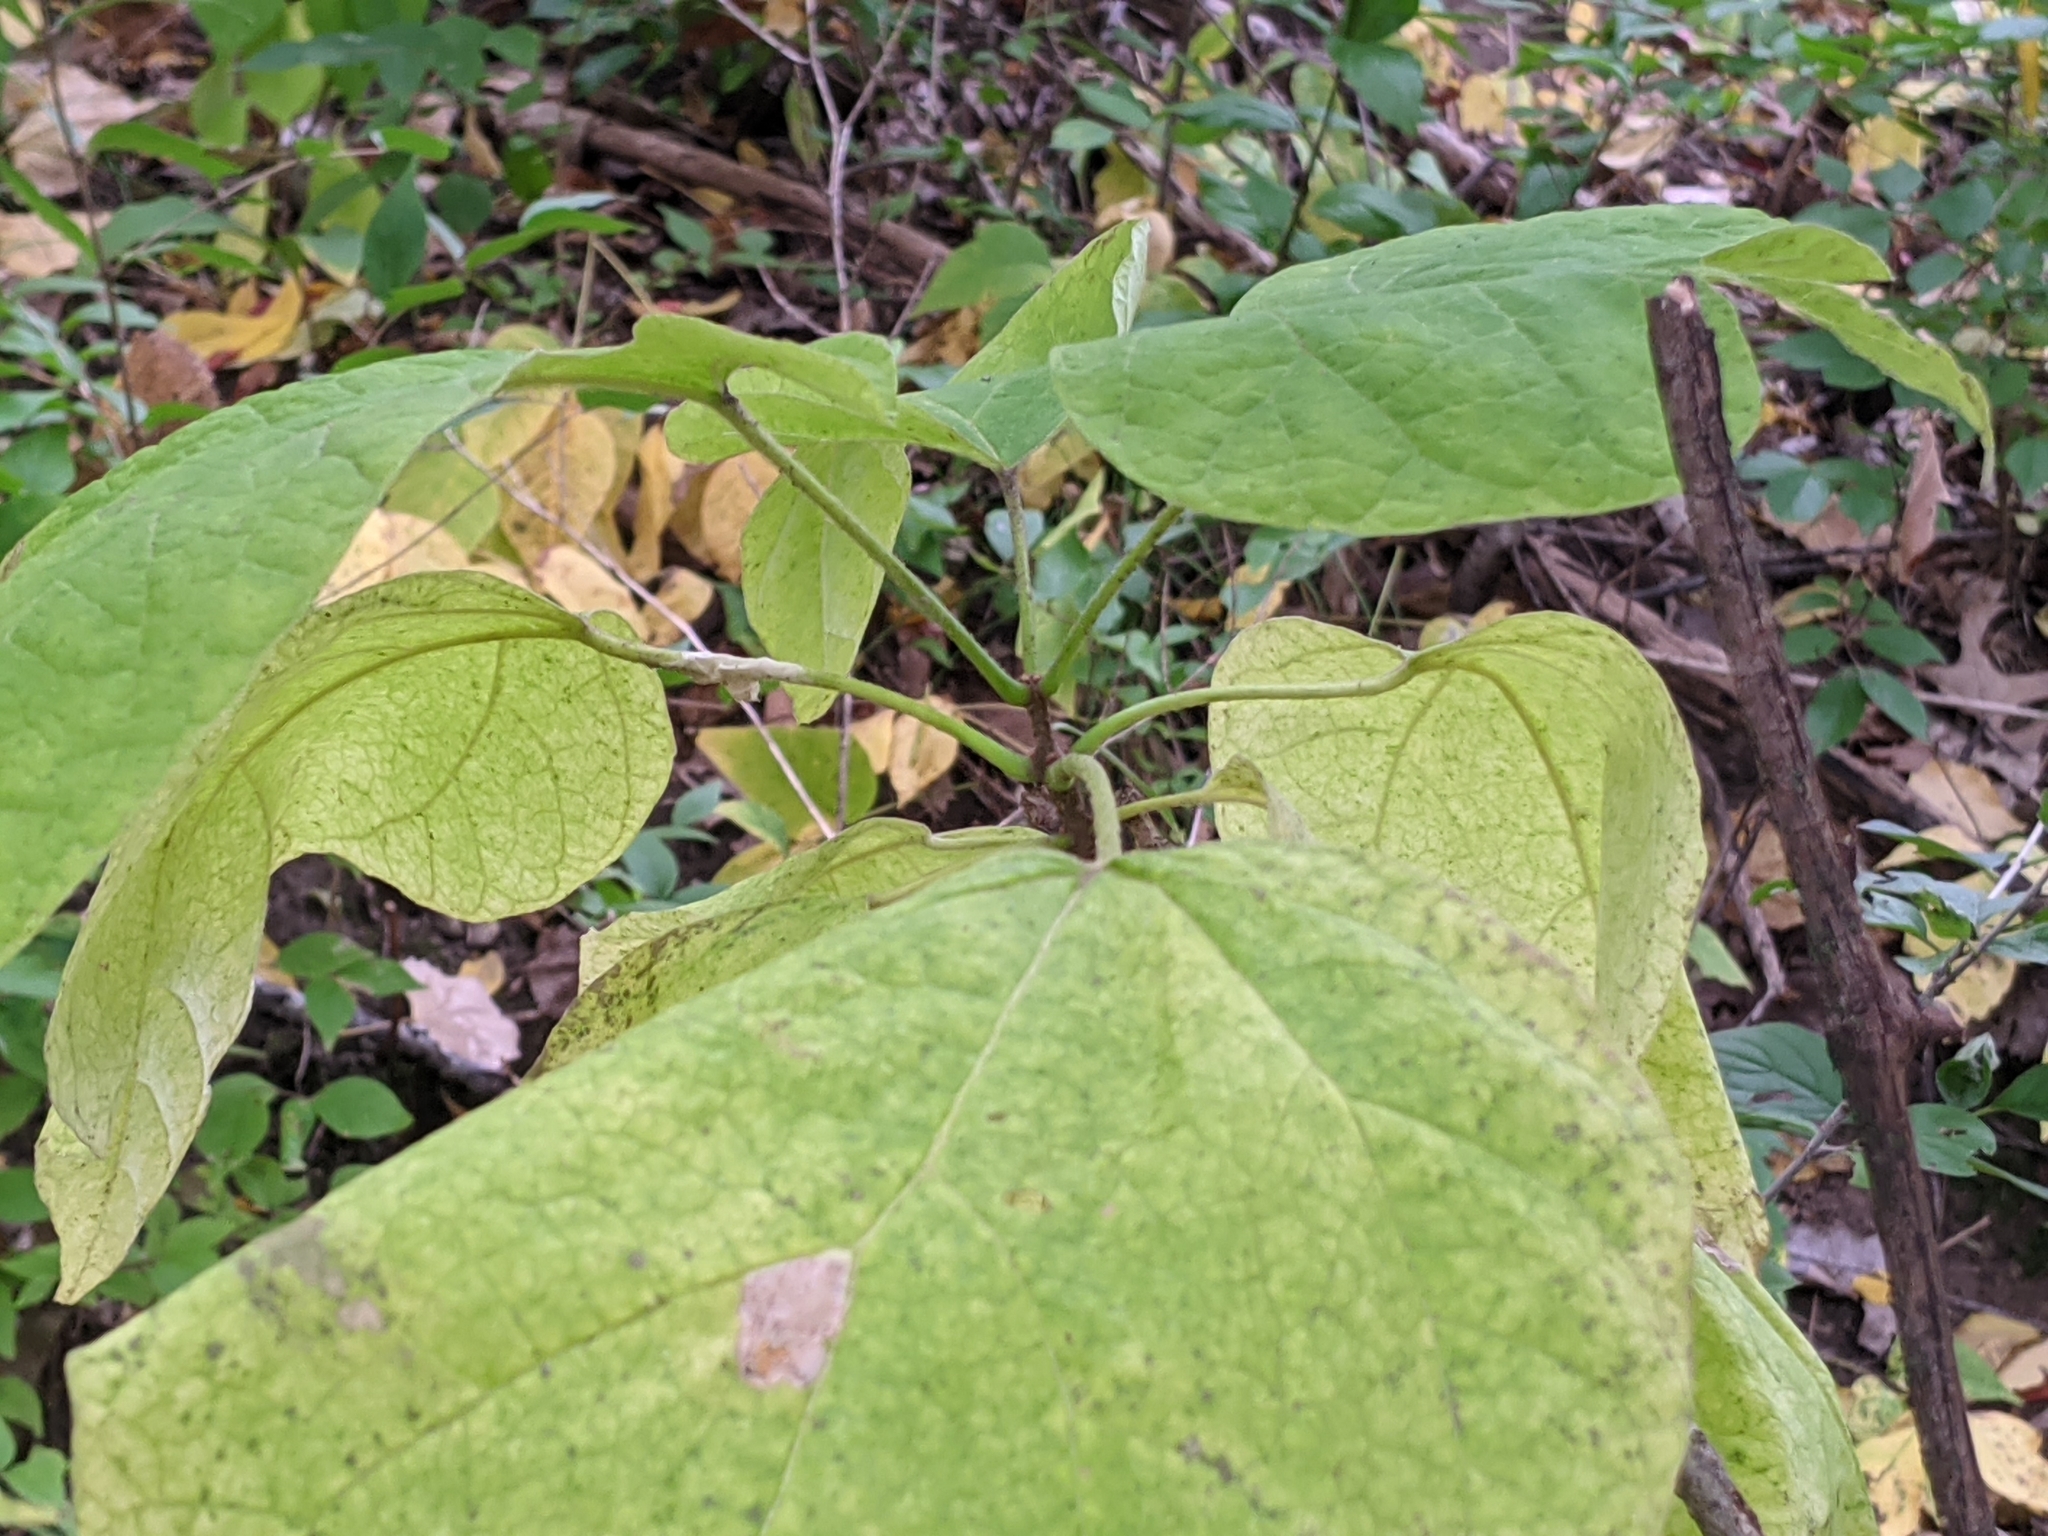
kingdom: Plantae
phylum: Tracheophyta
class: Magnoliopsida
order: Lamiales
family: Bignoniaceae
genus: Catalpa
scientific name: Catalpa speciosa
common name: Northern catalpa
